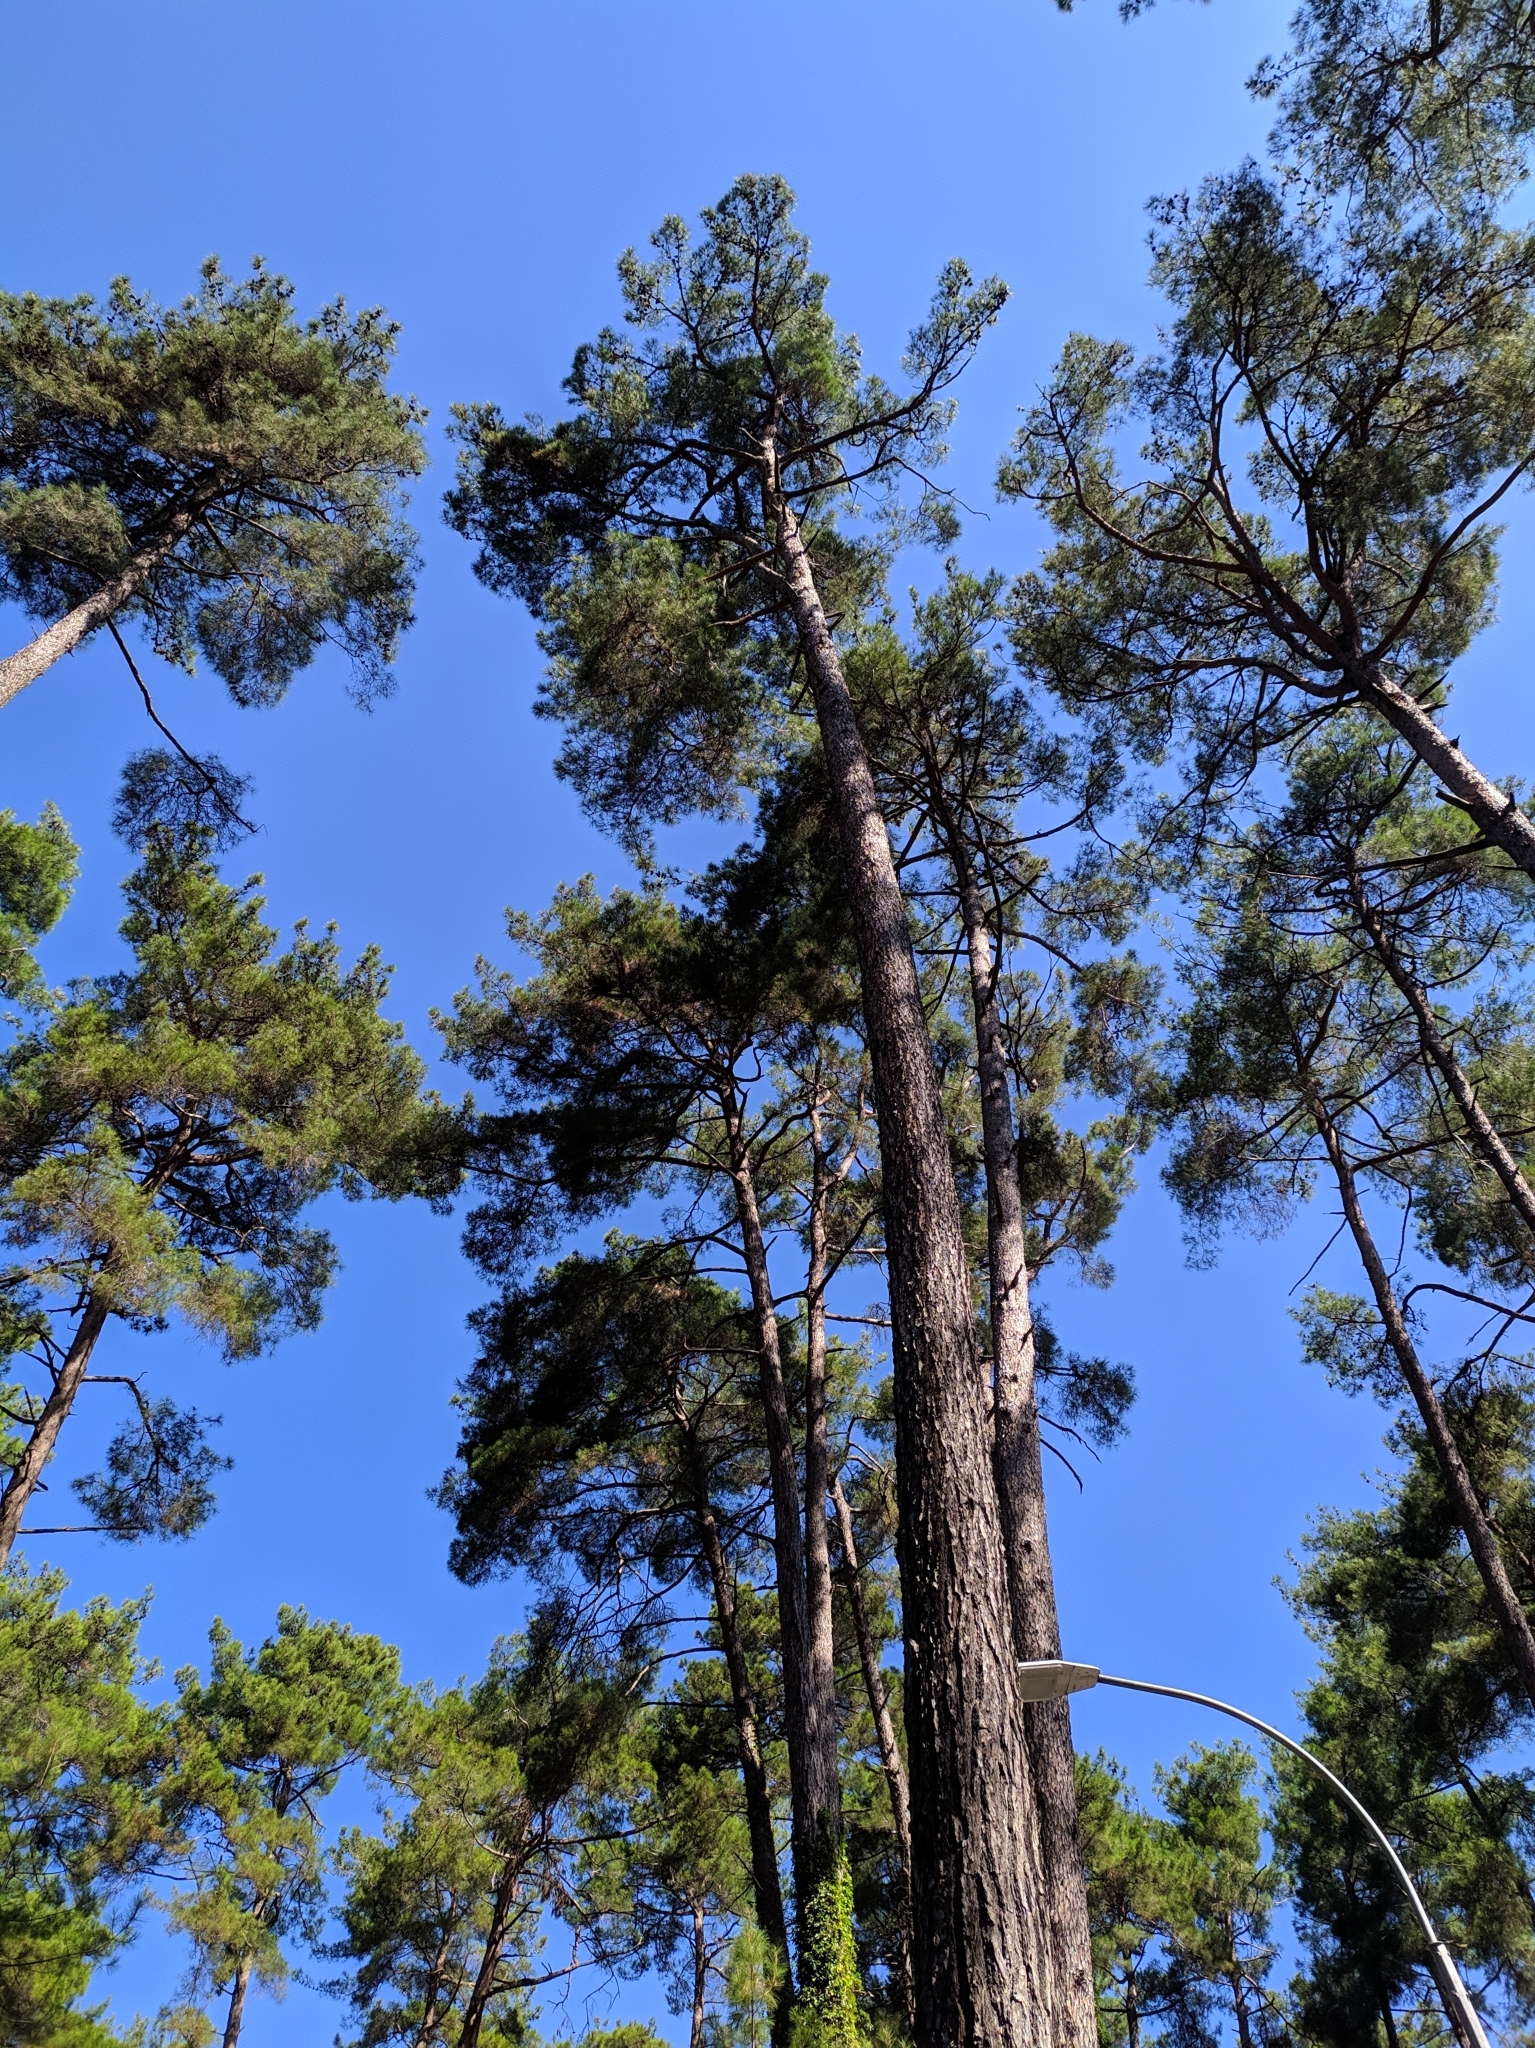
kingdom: Plantae
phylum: Tracheophyta
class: Pinopsida
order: Pinales
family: Pinaceae
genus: Pinus
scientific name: Pinus brutia
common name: Turkish pine
